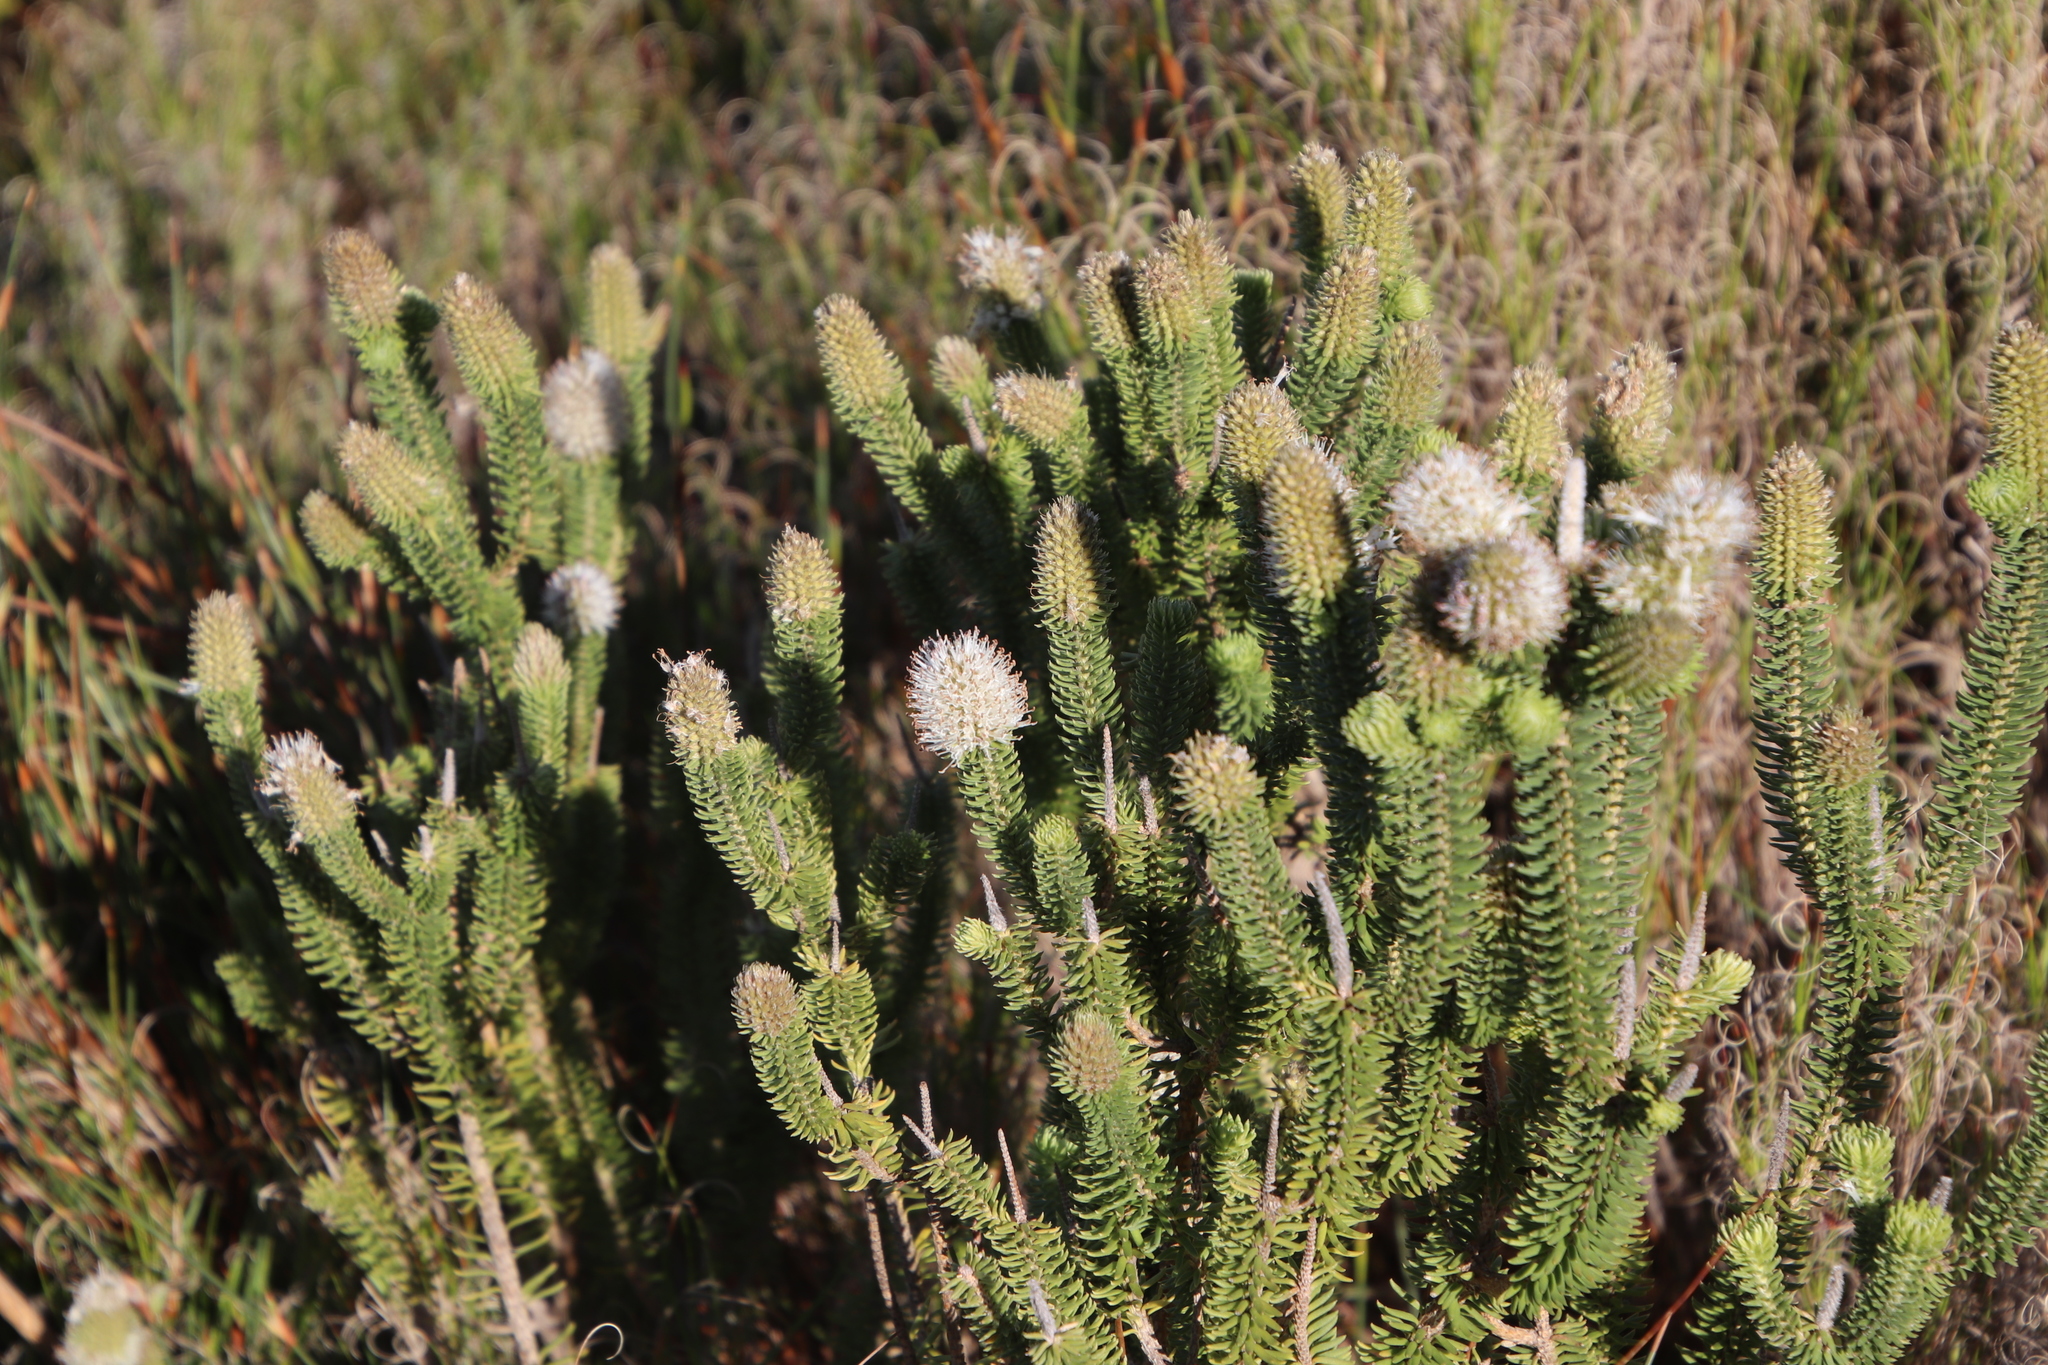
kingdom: Plantae
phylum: Tracheophyta
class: Magnoliopsida
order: Lamiales
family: Stilbaceae
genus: Stilbe
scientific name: Stilbe vestita
